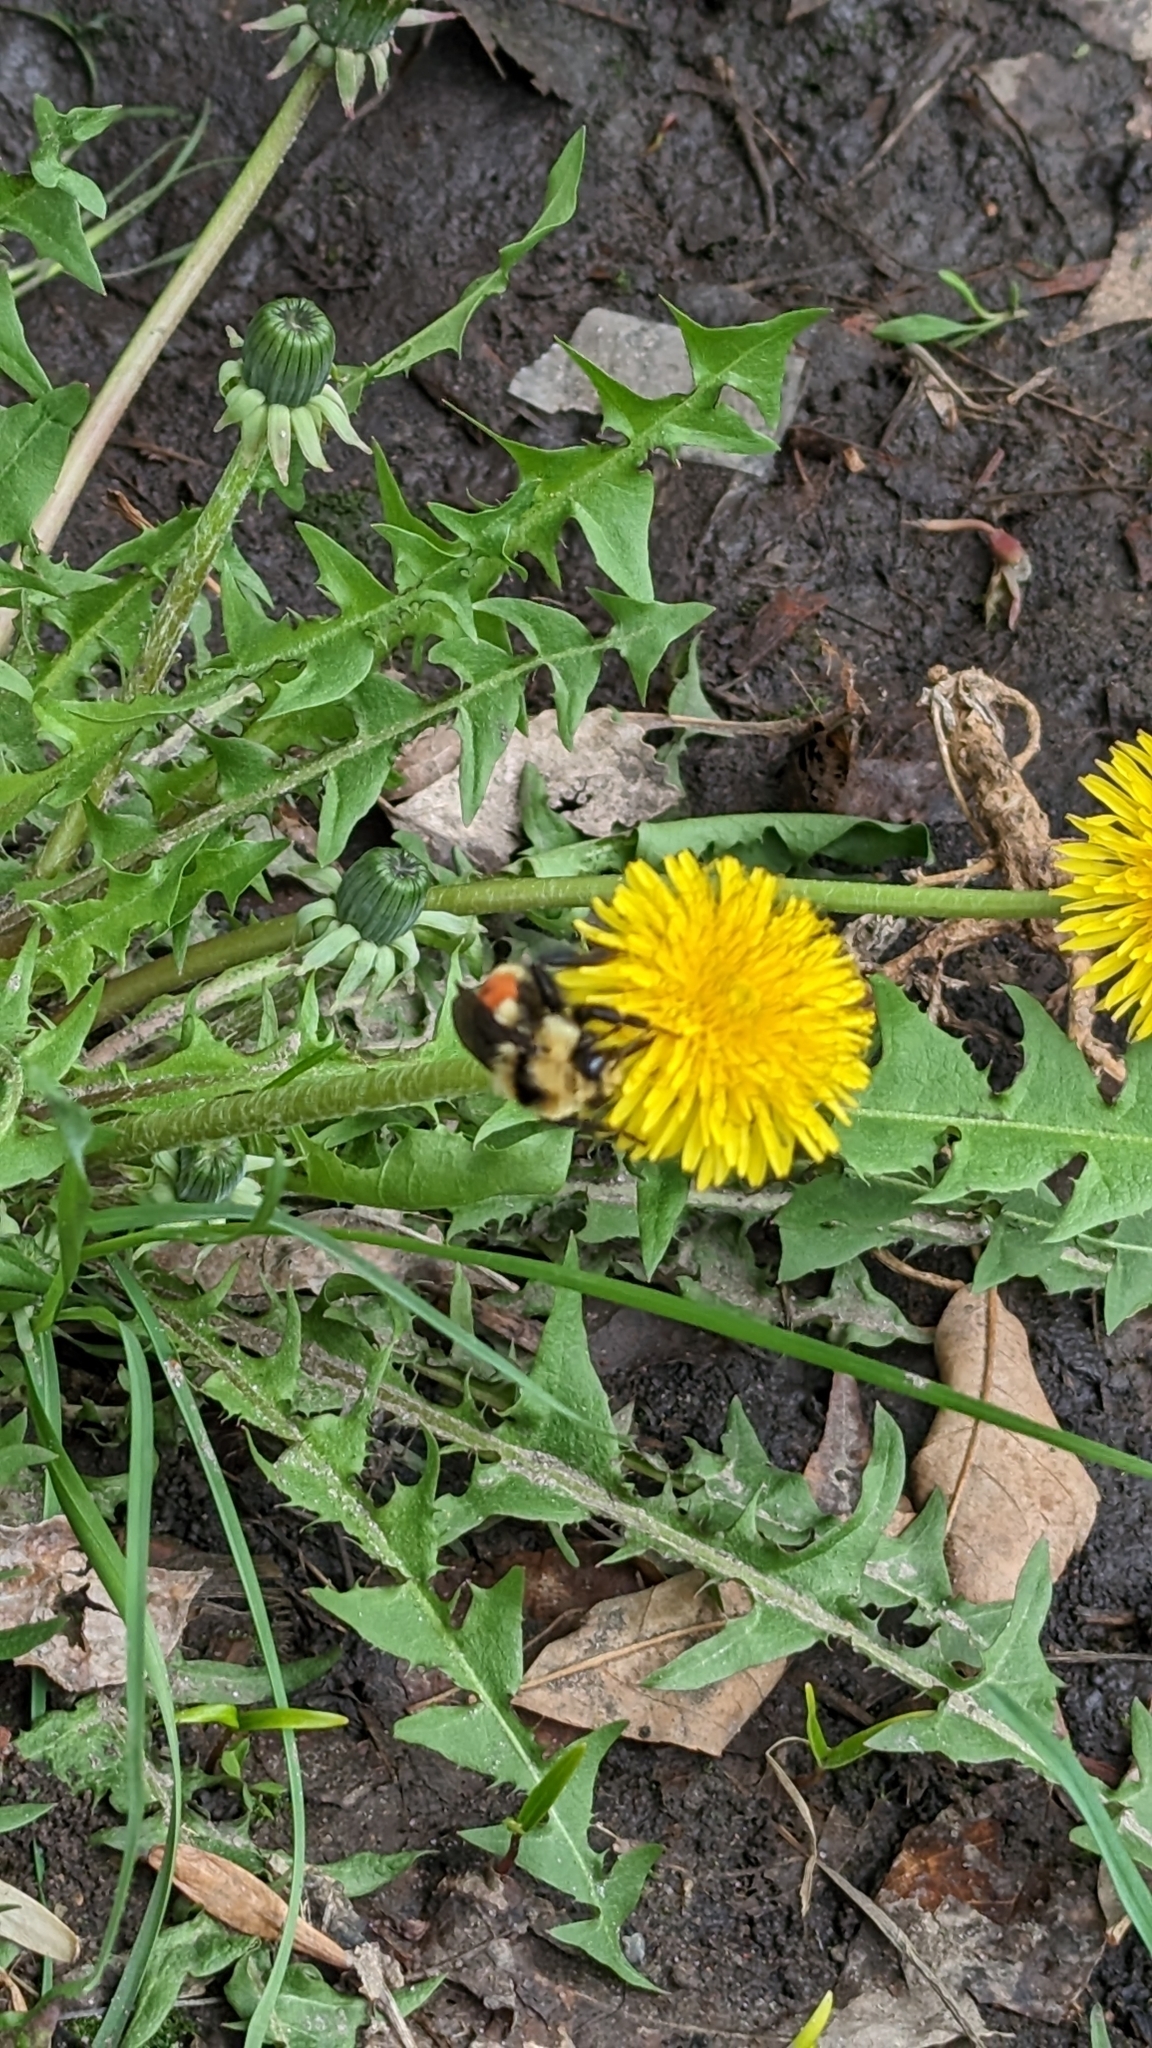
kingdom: Animalia
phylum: Arthropoda
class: Insecta
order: Hymenoptera
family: Apidae
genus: Bombus
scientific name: Bombus huntii
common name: Hunt bumble bee
